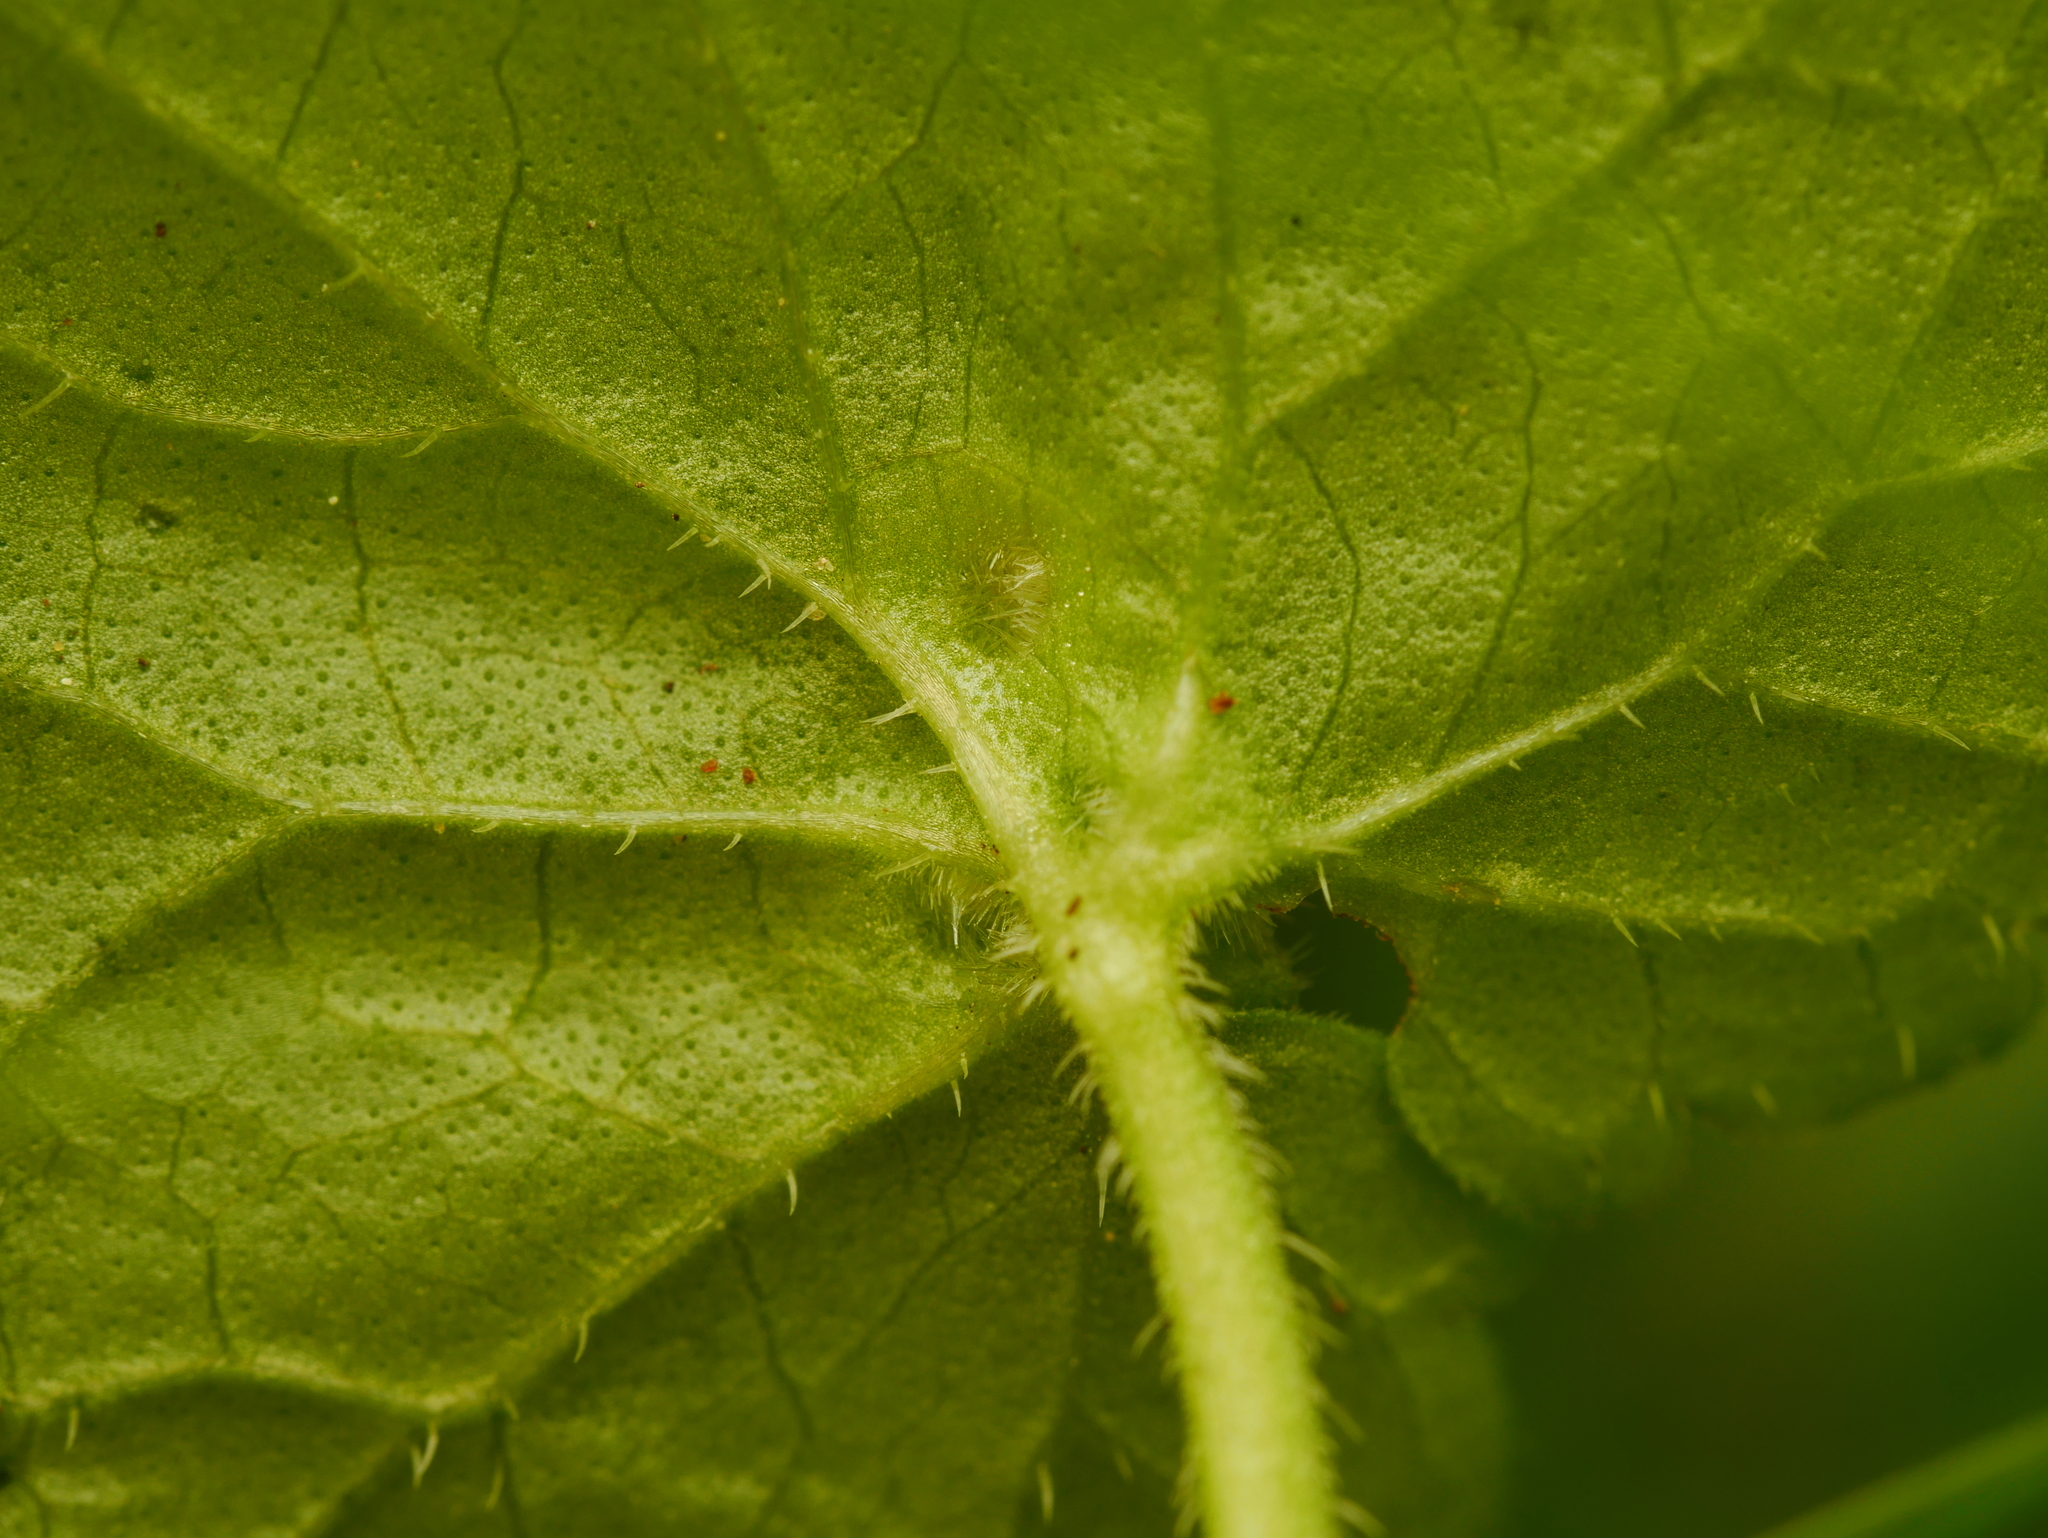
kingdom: Animalia
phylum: Arthropoda
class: Insecta
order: Diptera
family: Cecidomyiidae
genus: Rondaniola
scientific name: Rondaniola bursaria
